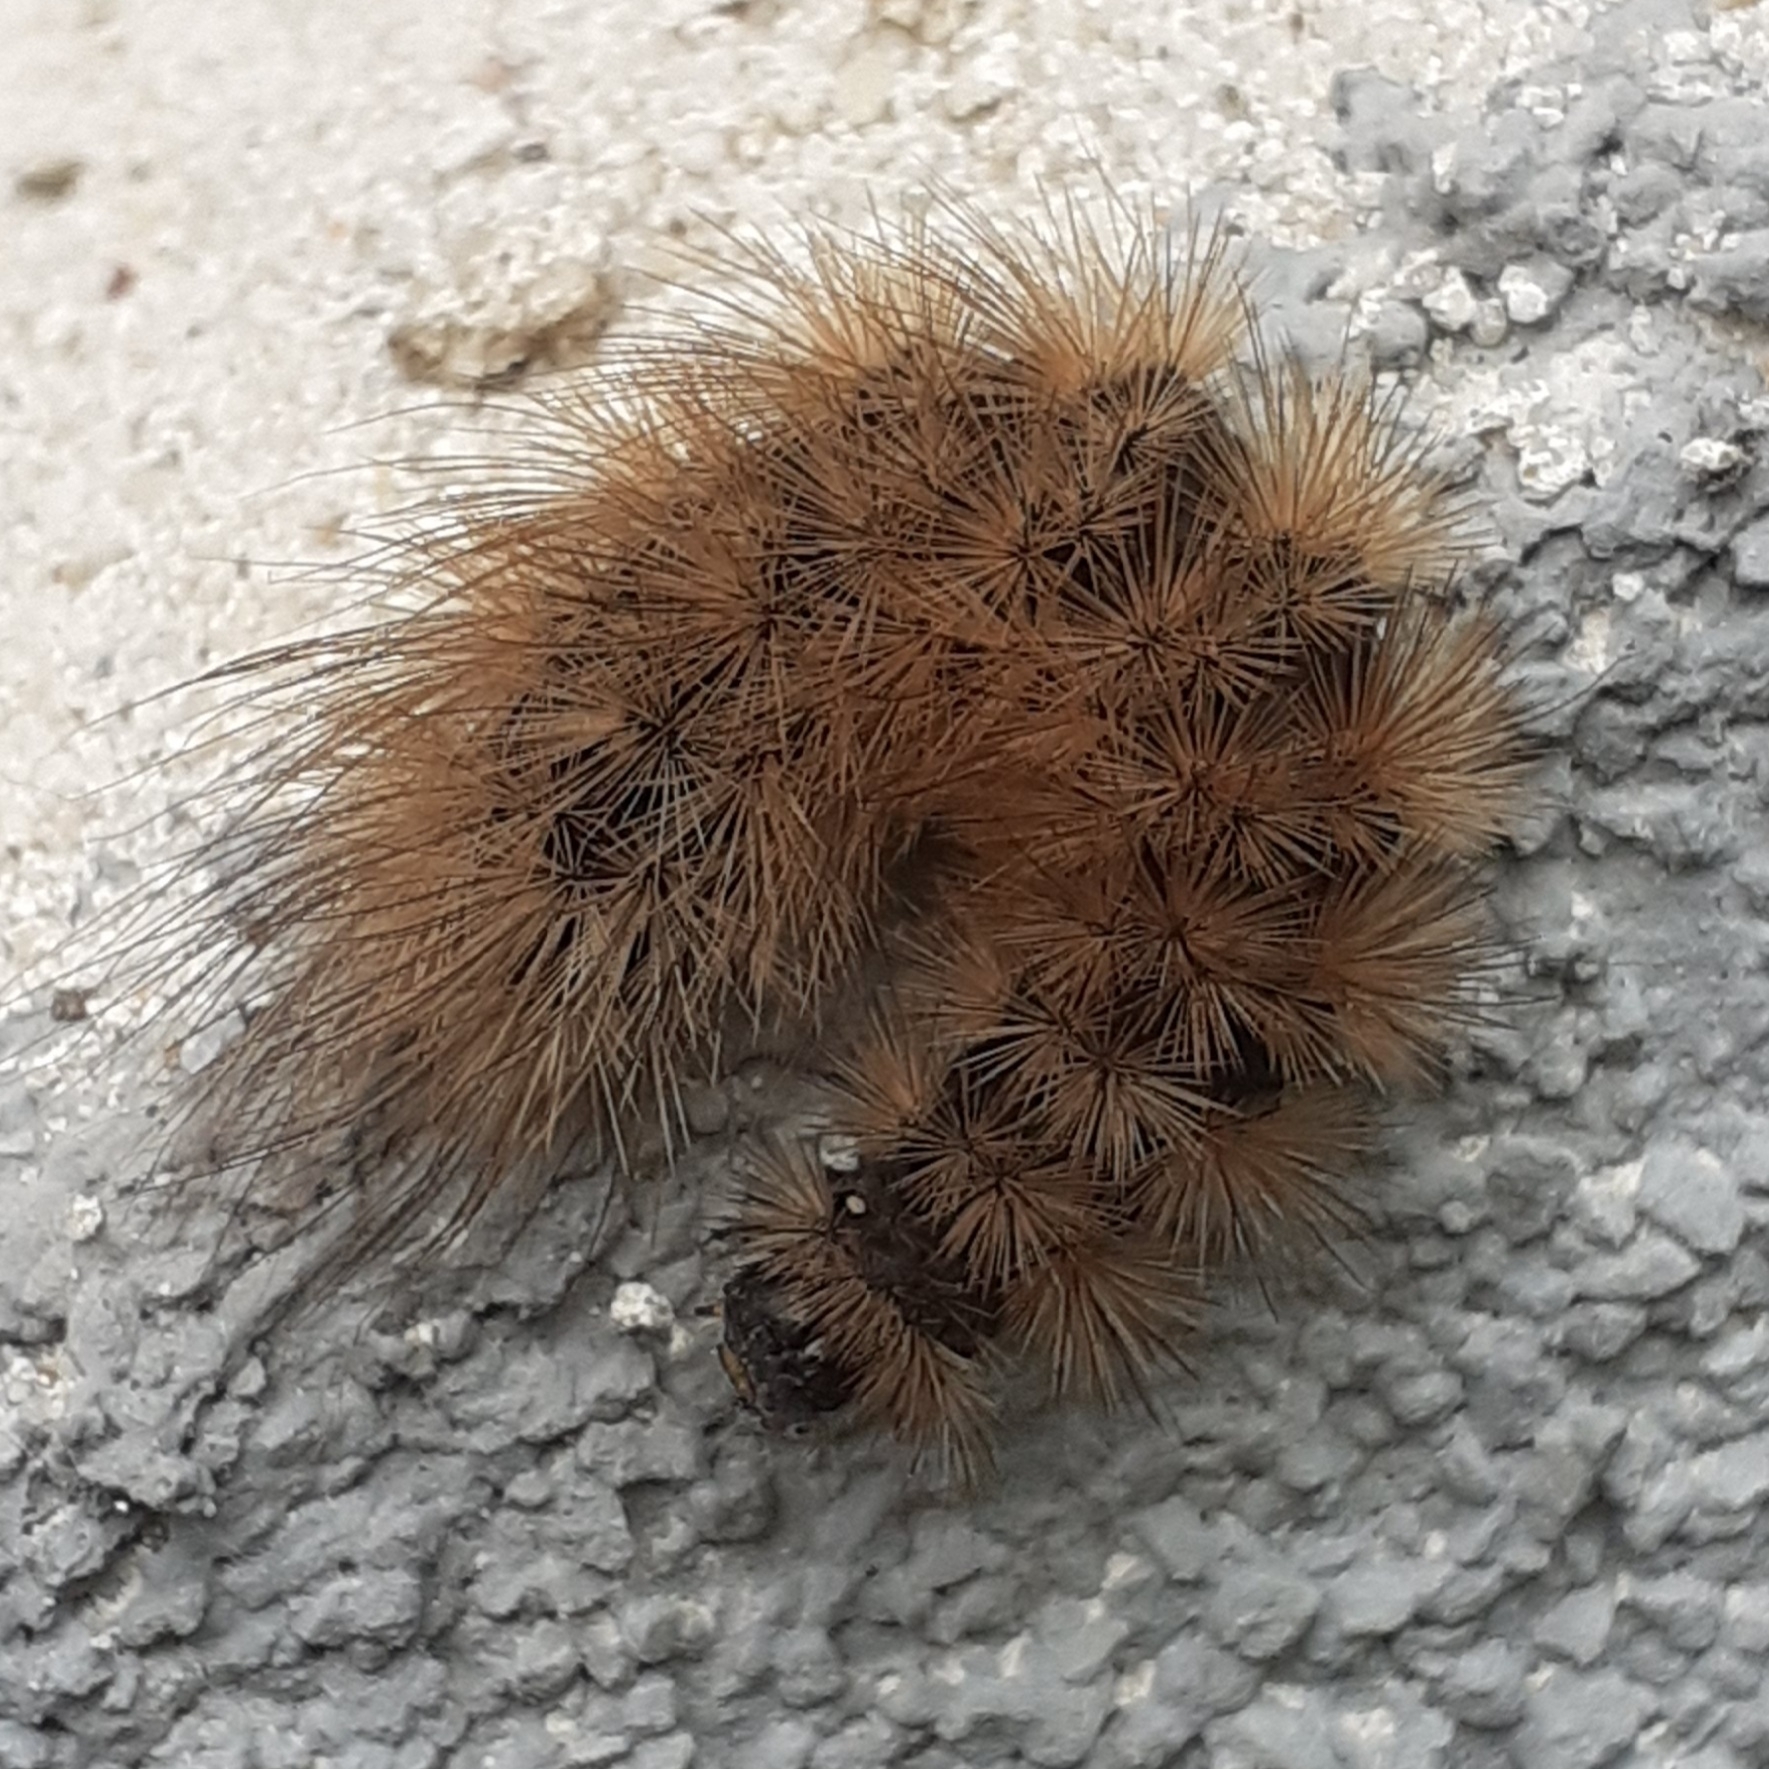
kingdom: Animalia
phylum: Arthropoda
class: Insecta
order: Lepidoptera
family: Erebidae
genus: Phragmatobia
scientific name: Phragmatobia fuliginosa
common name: Ruby tiger
